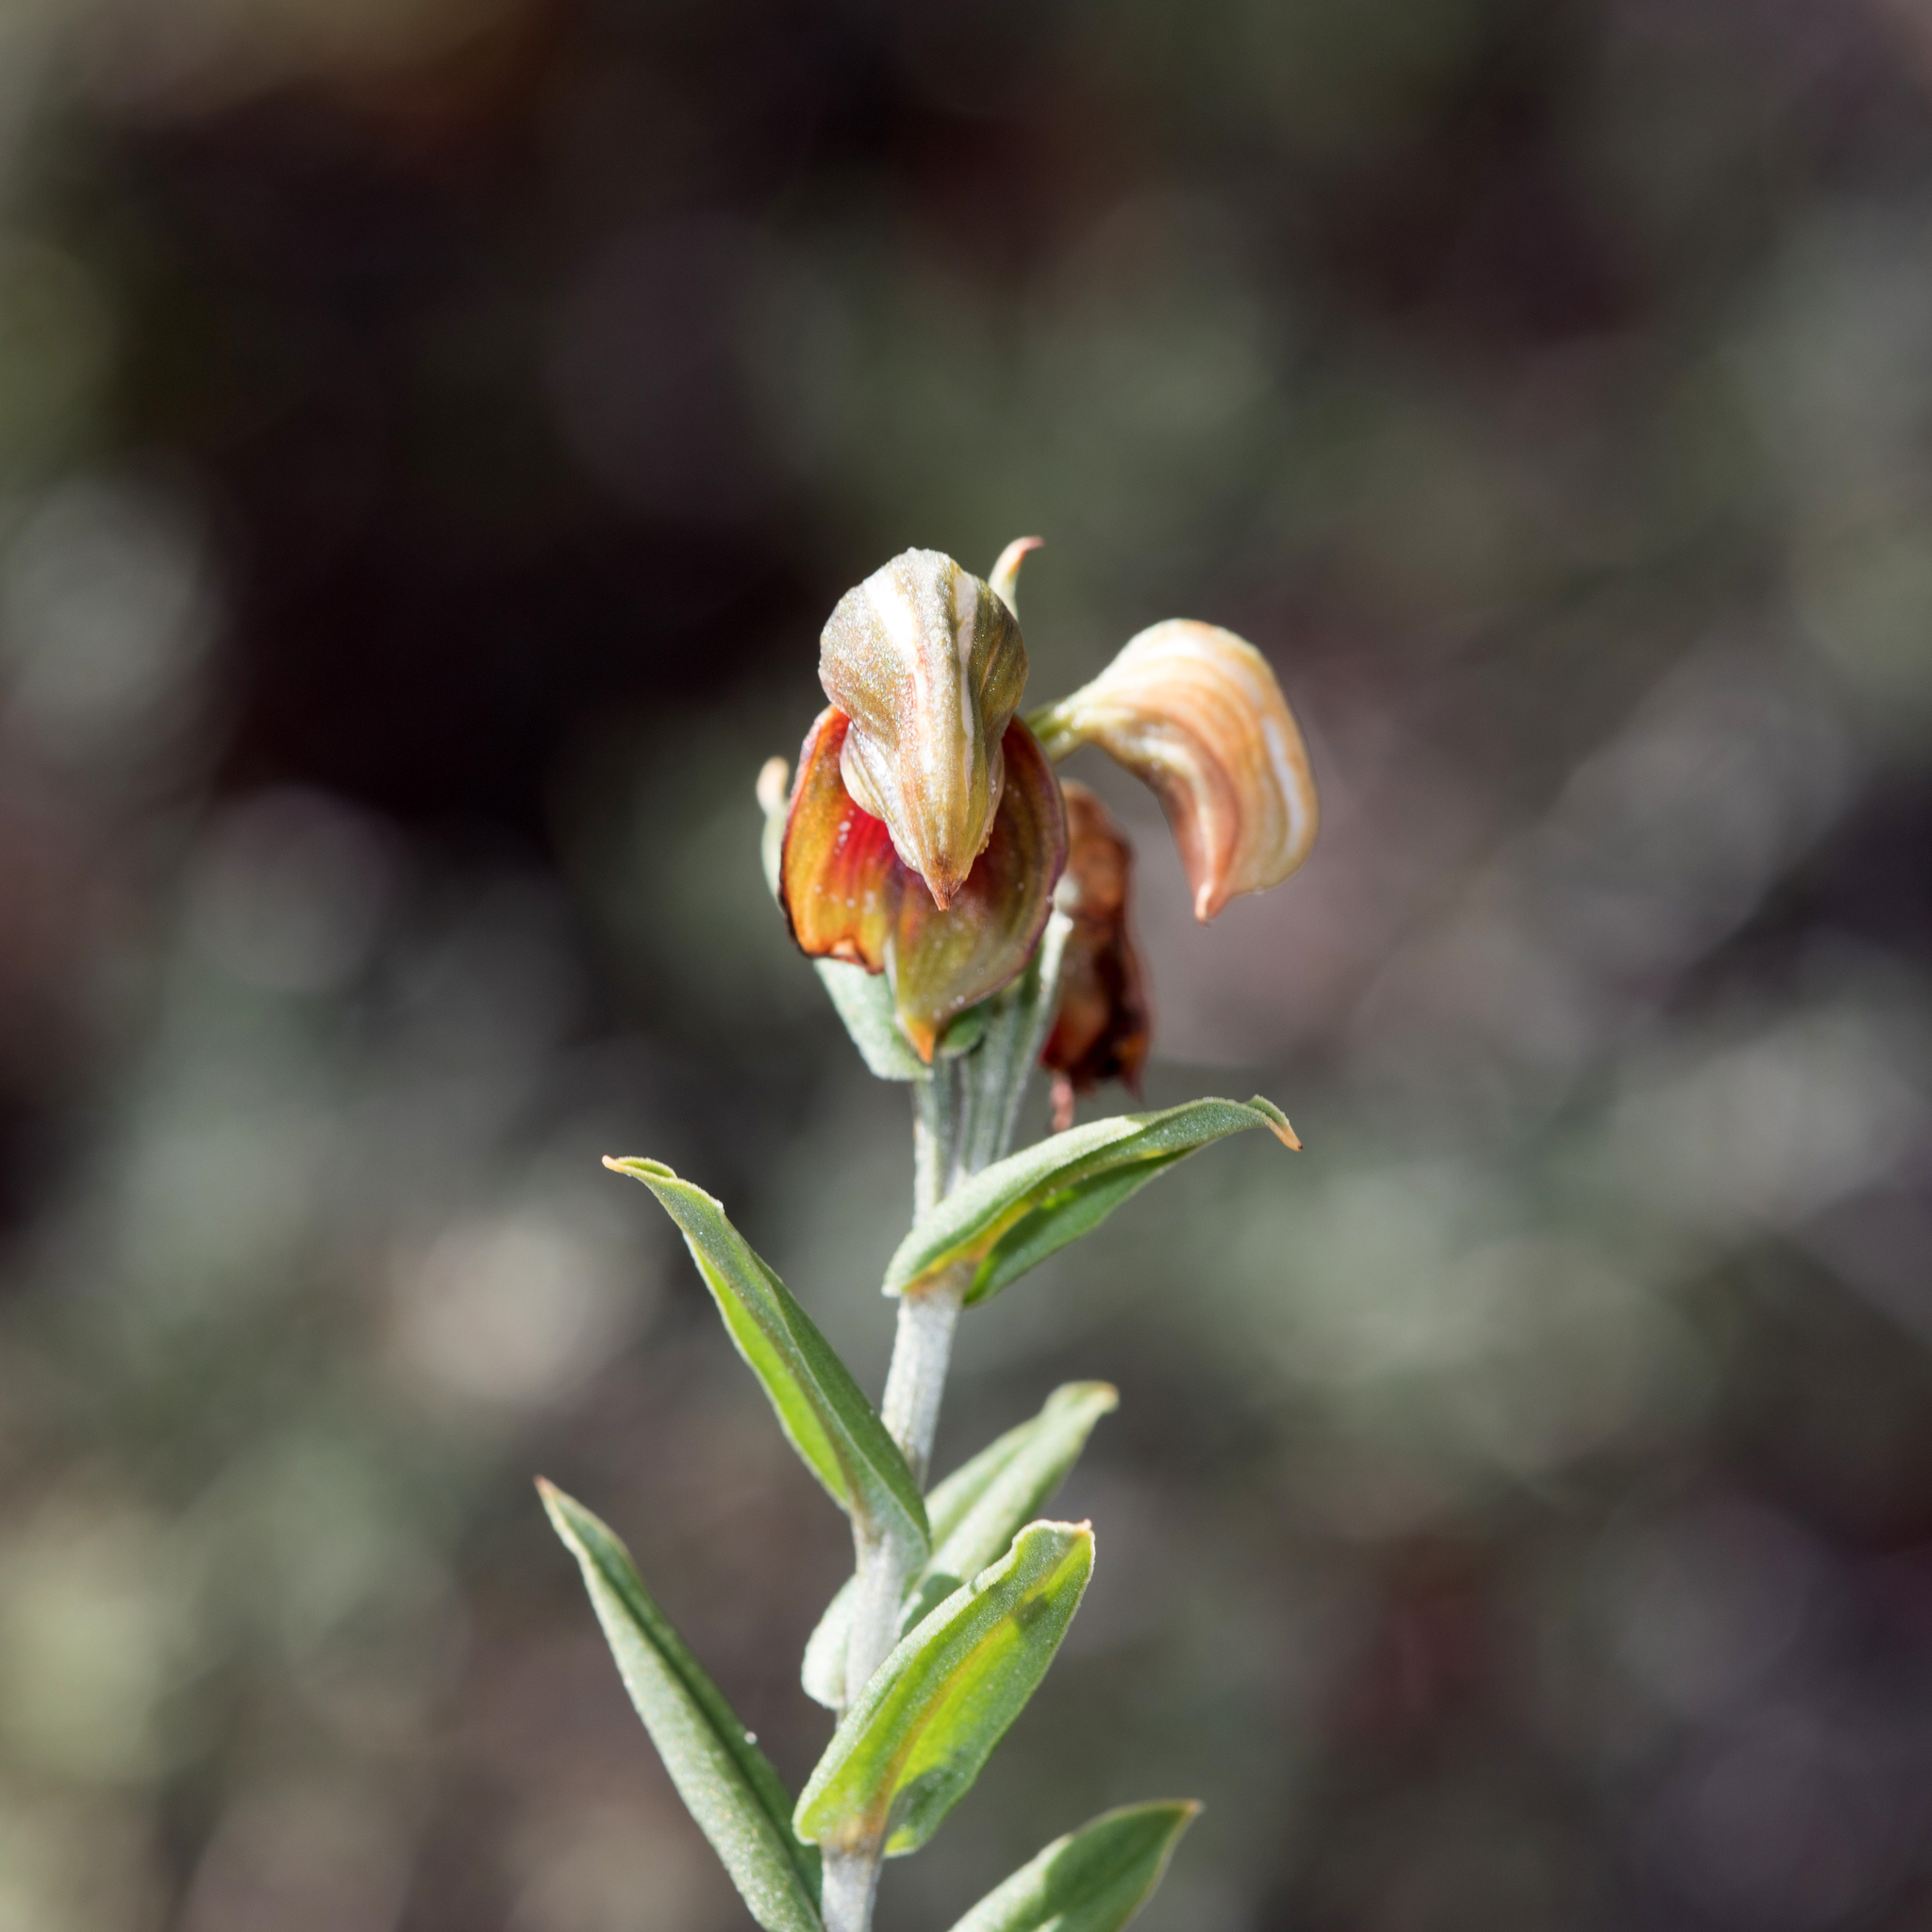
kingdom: Plantae
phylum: Tracheophyta
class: Liliopsida
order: Asparagales
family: Orchidaceae
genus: Pterostylis
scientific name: Pterostylis sanguinea
